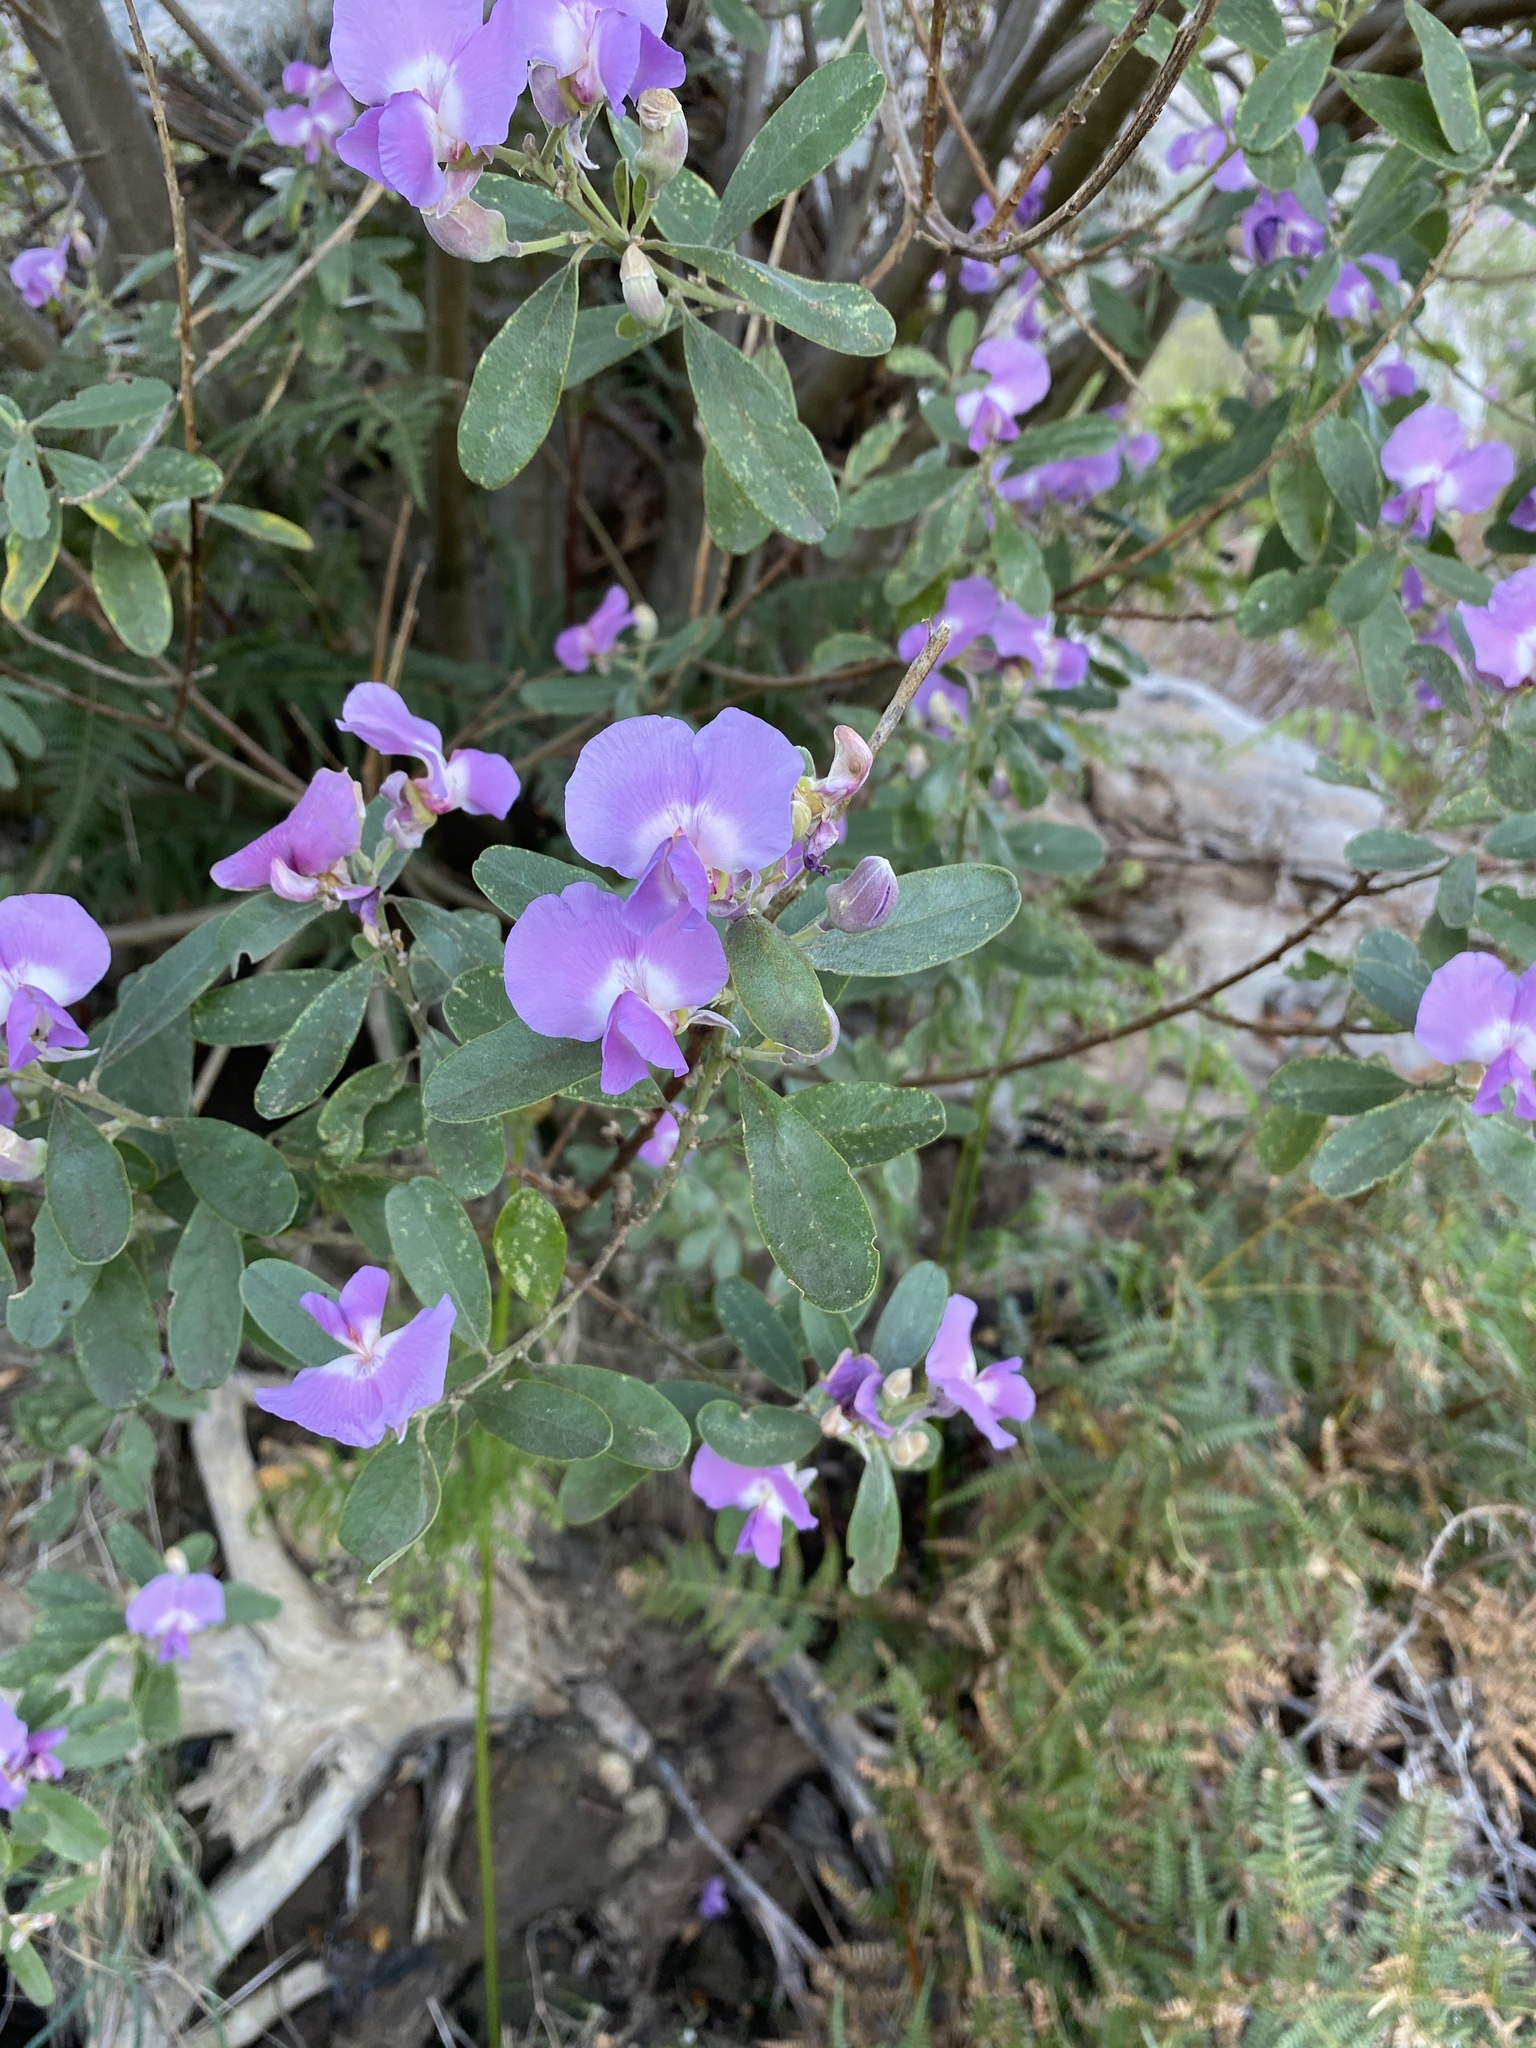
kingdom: Plantae
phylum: Tracheophyta
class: Magnoliopsida
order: Fabales
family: Fabaceae
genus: Podalyria
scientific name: Podalyria calyptrata
